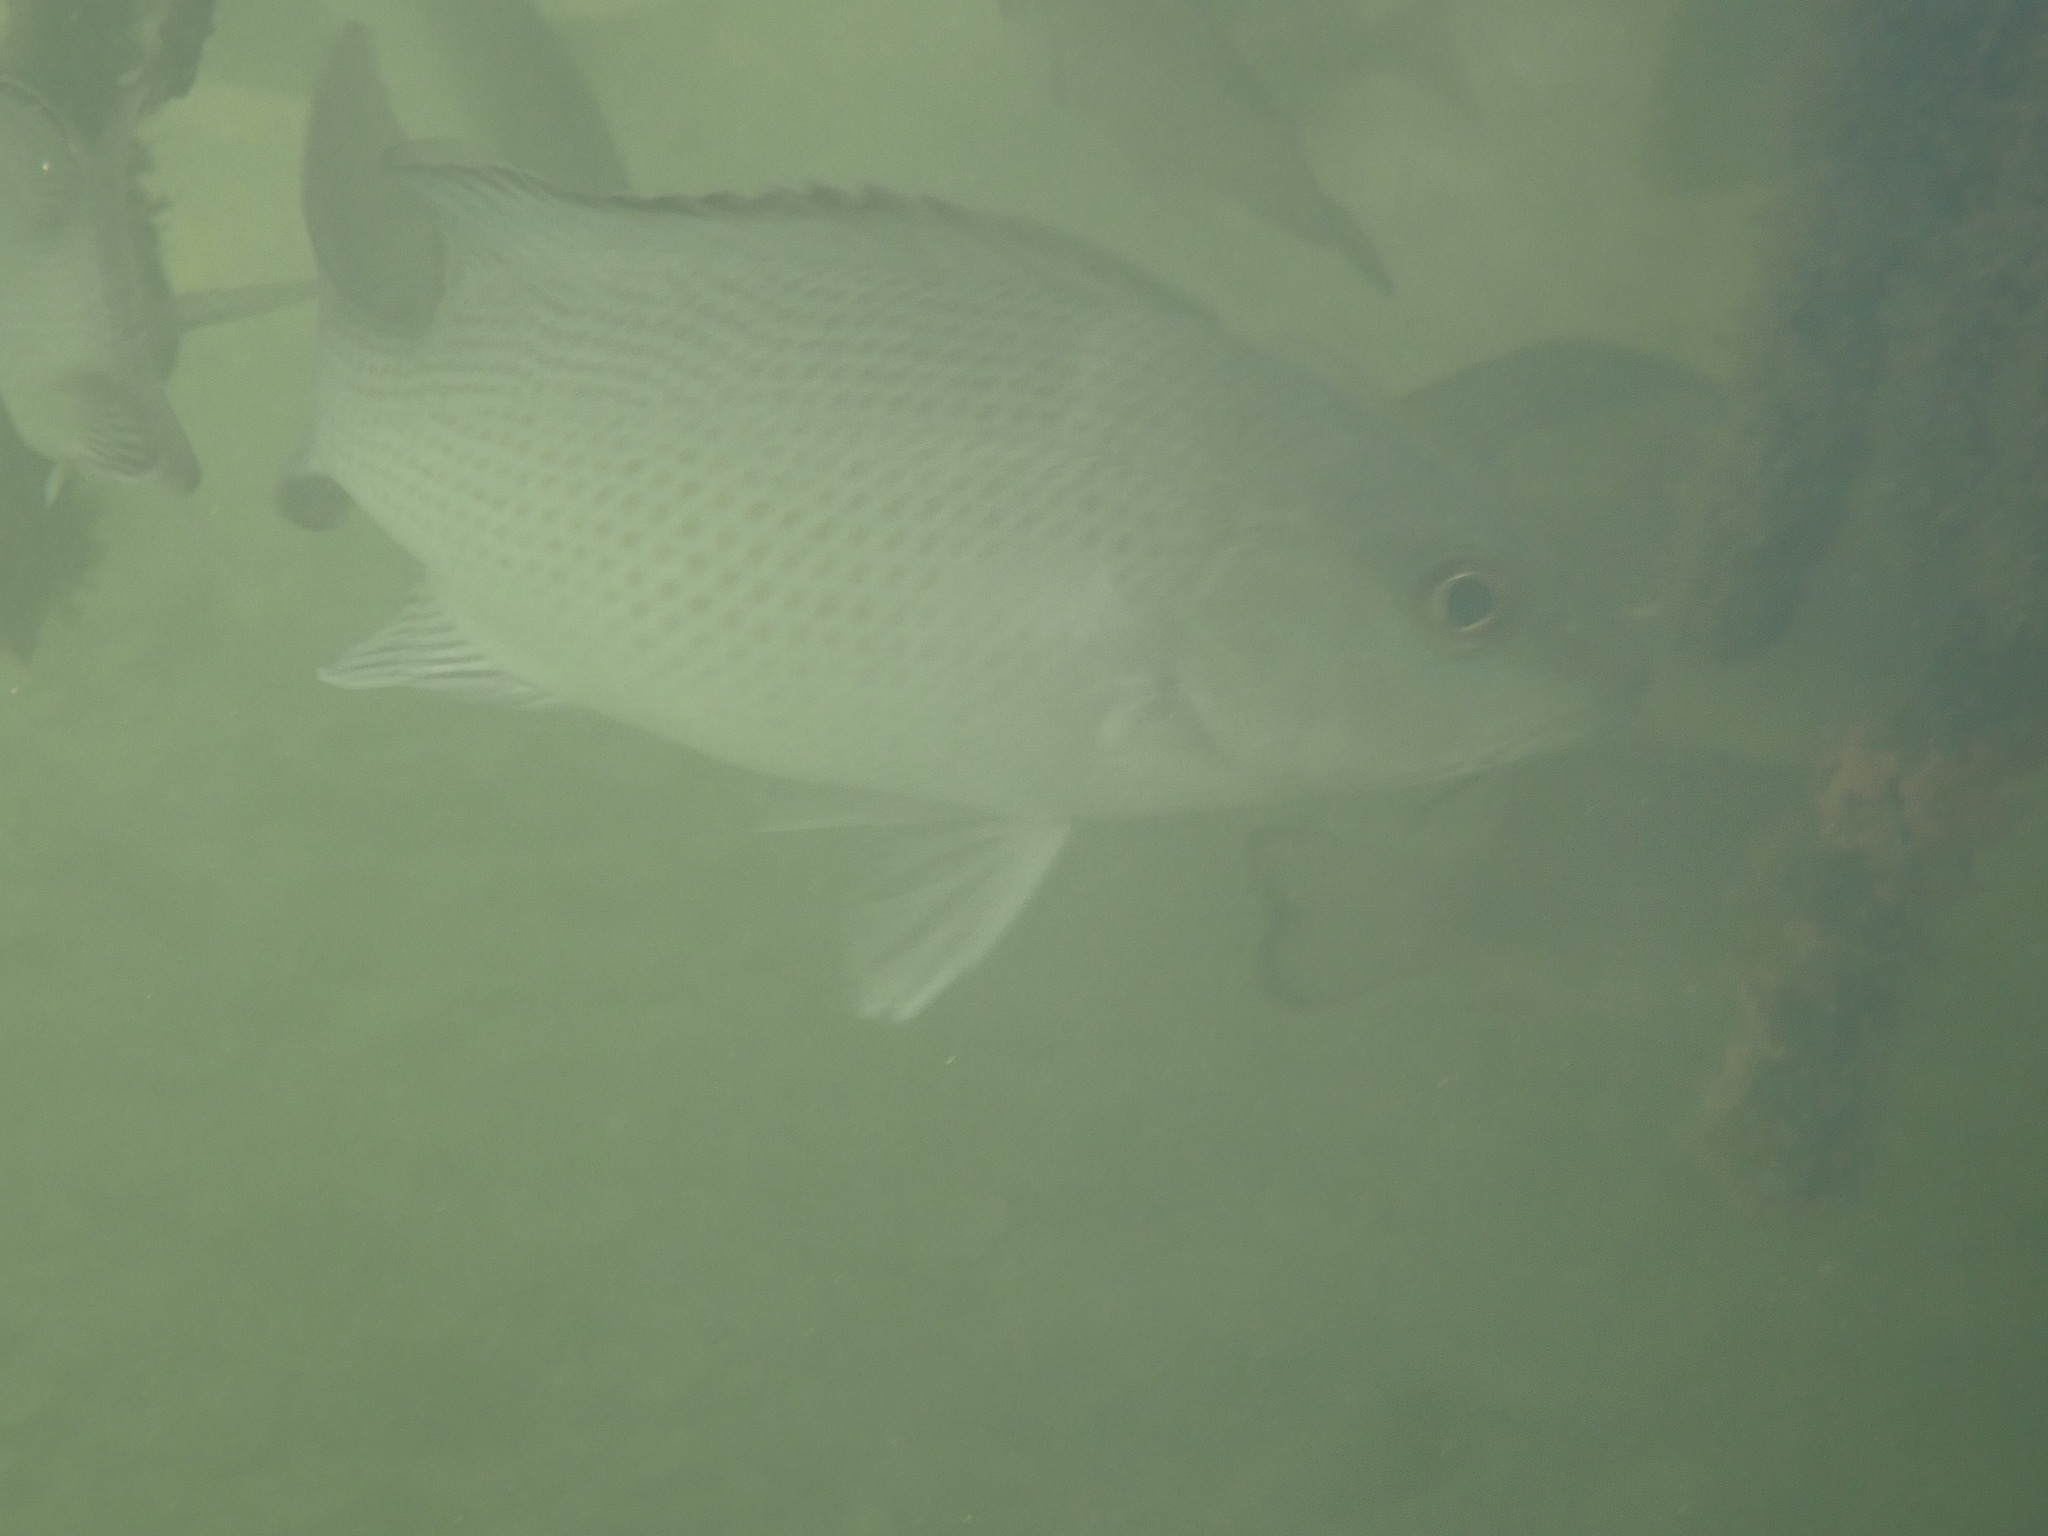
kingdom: Animalia
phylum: Chordata
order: Perciformes
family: Lutjanidae
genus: Lutjanus
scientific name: Lutjanus griseus
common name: Gray snapper
